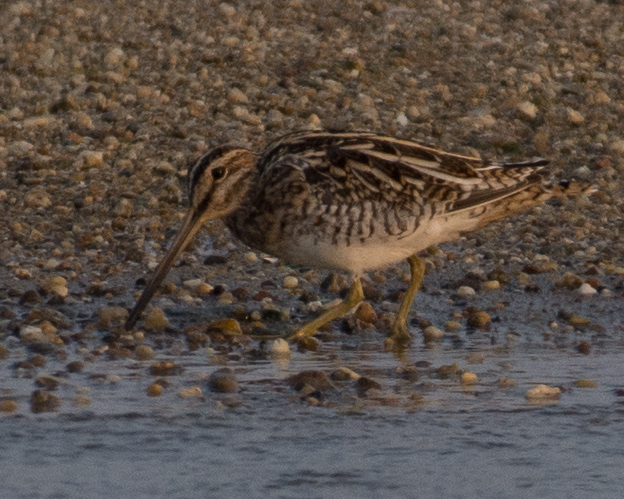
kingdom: Animalia
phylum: Chordata
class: Aves
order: Charadriiformes
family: Scolopacidae
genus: Gallinago
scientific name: Gallinago gallinago
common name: Common snipe
